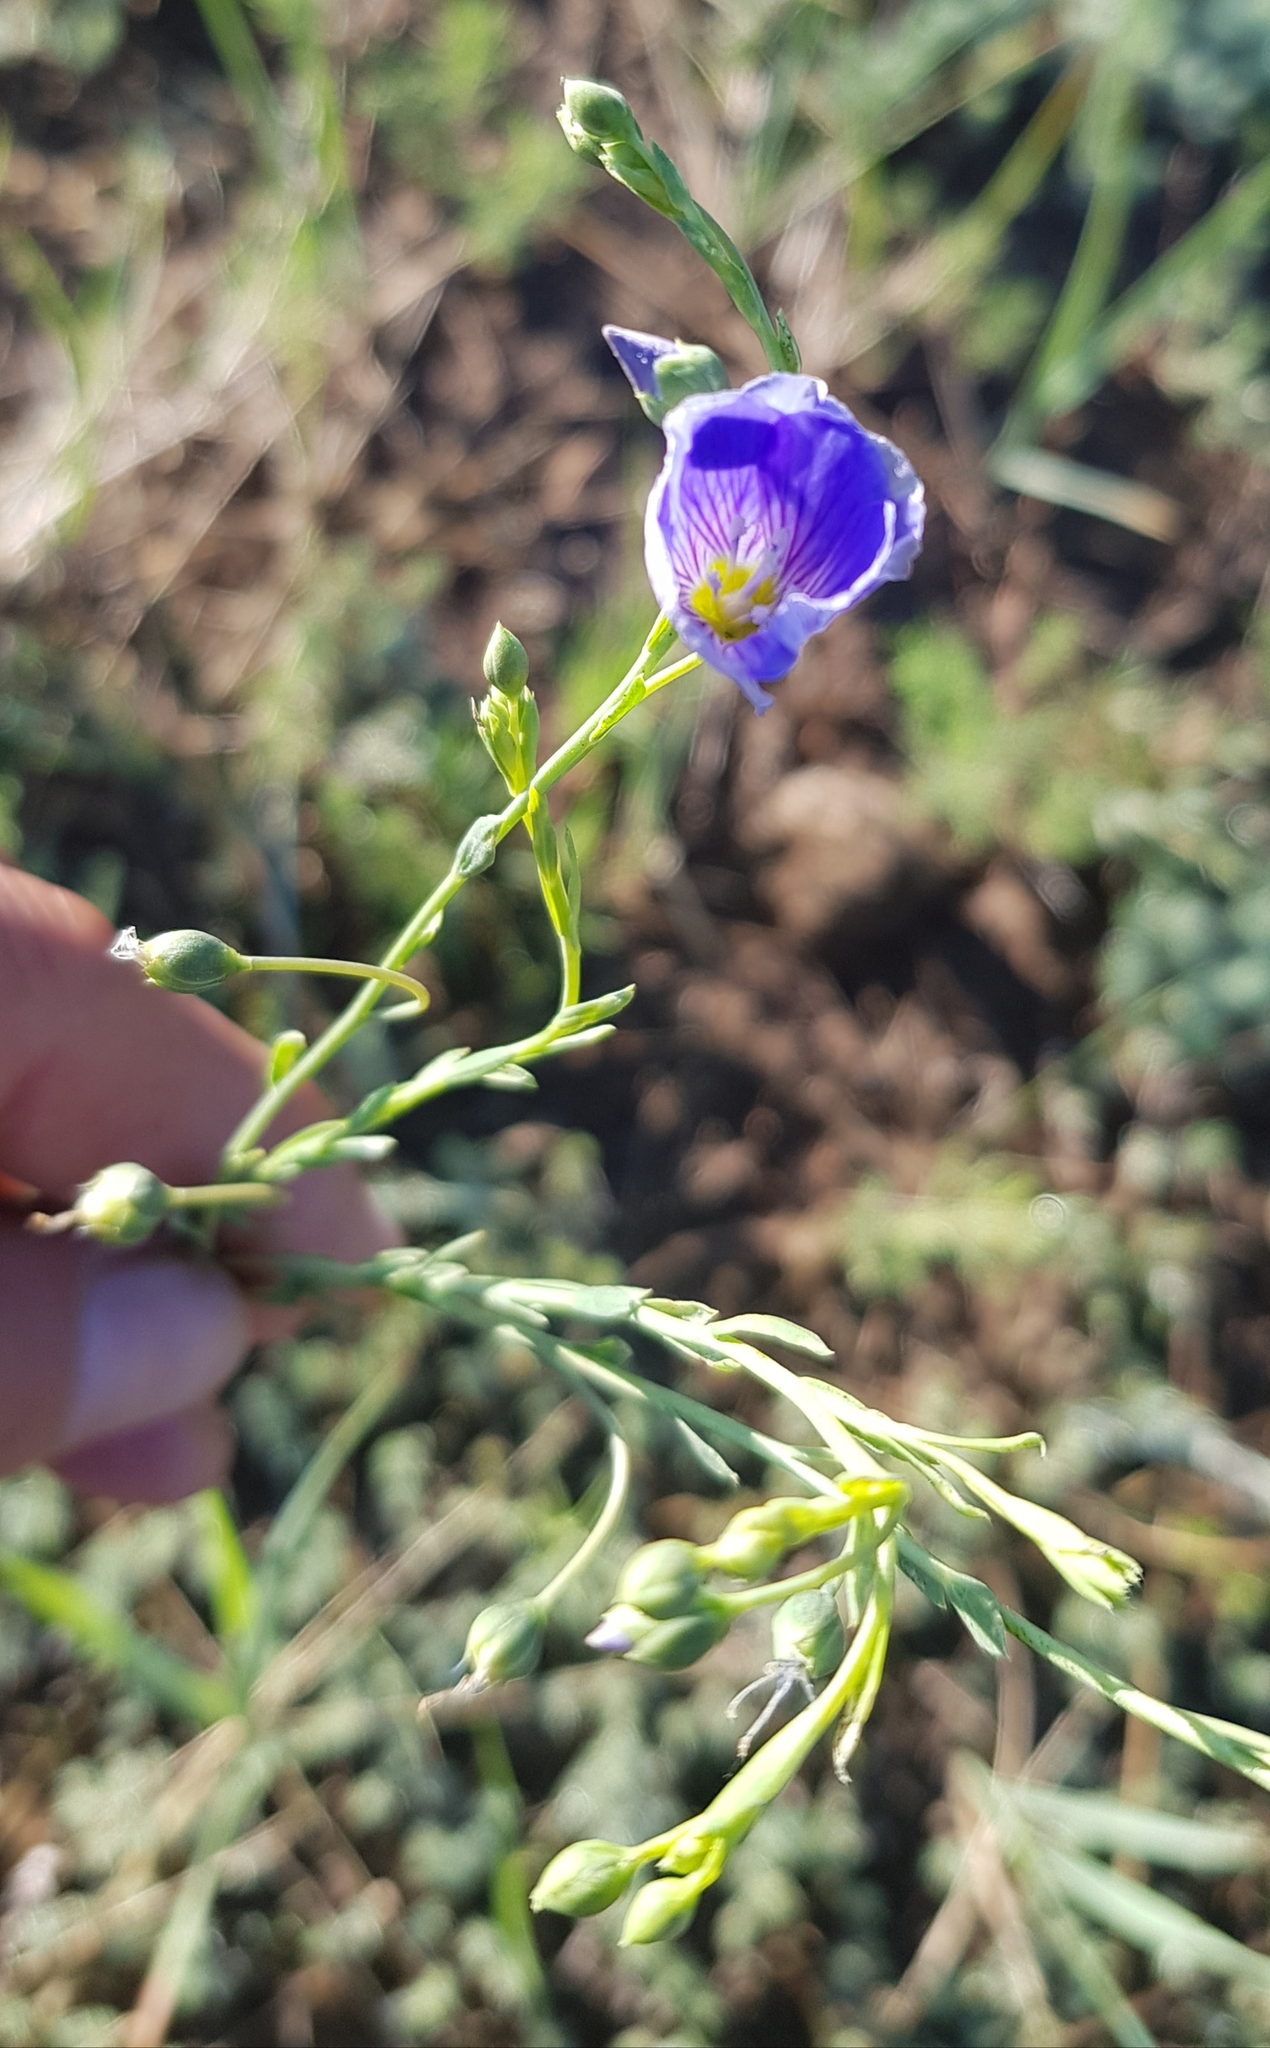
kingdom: Plantae
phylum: Tracheophyta
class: Magnoliopsida
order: Malpighiales
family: Linaceae
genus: Linum
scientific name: Linum usitatissimum
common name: Flax
